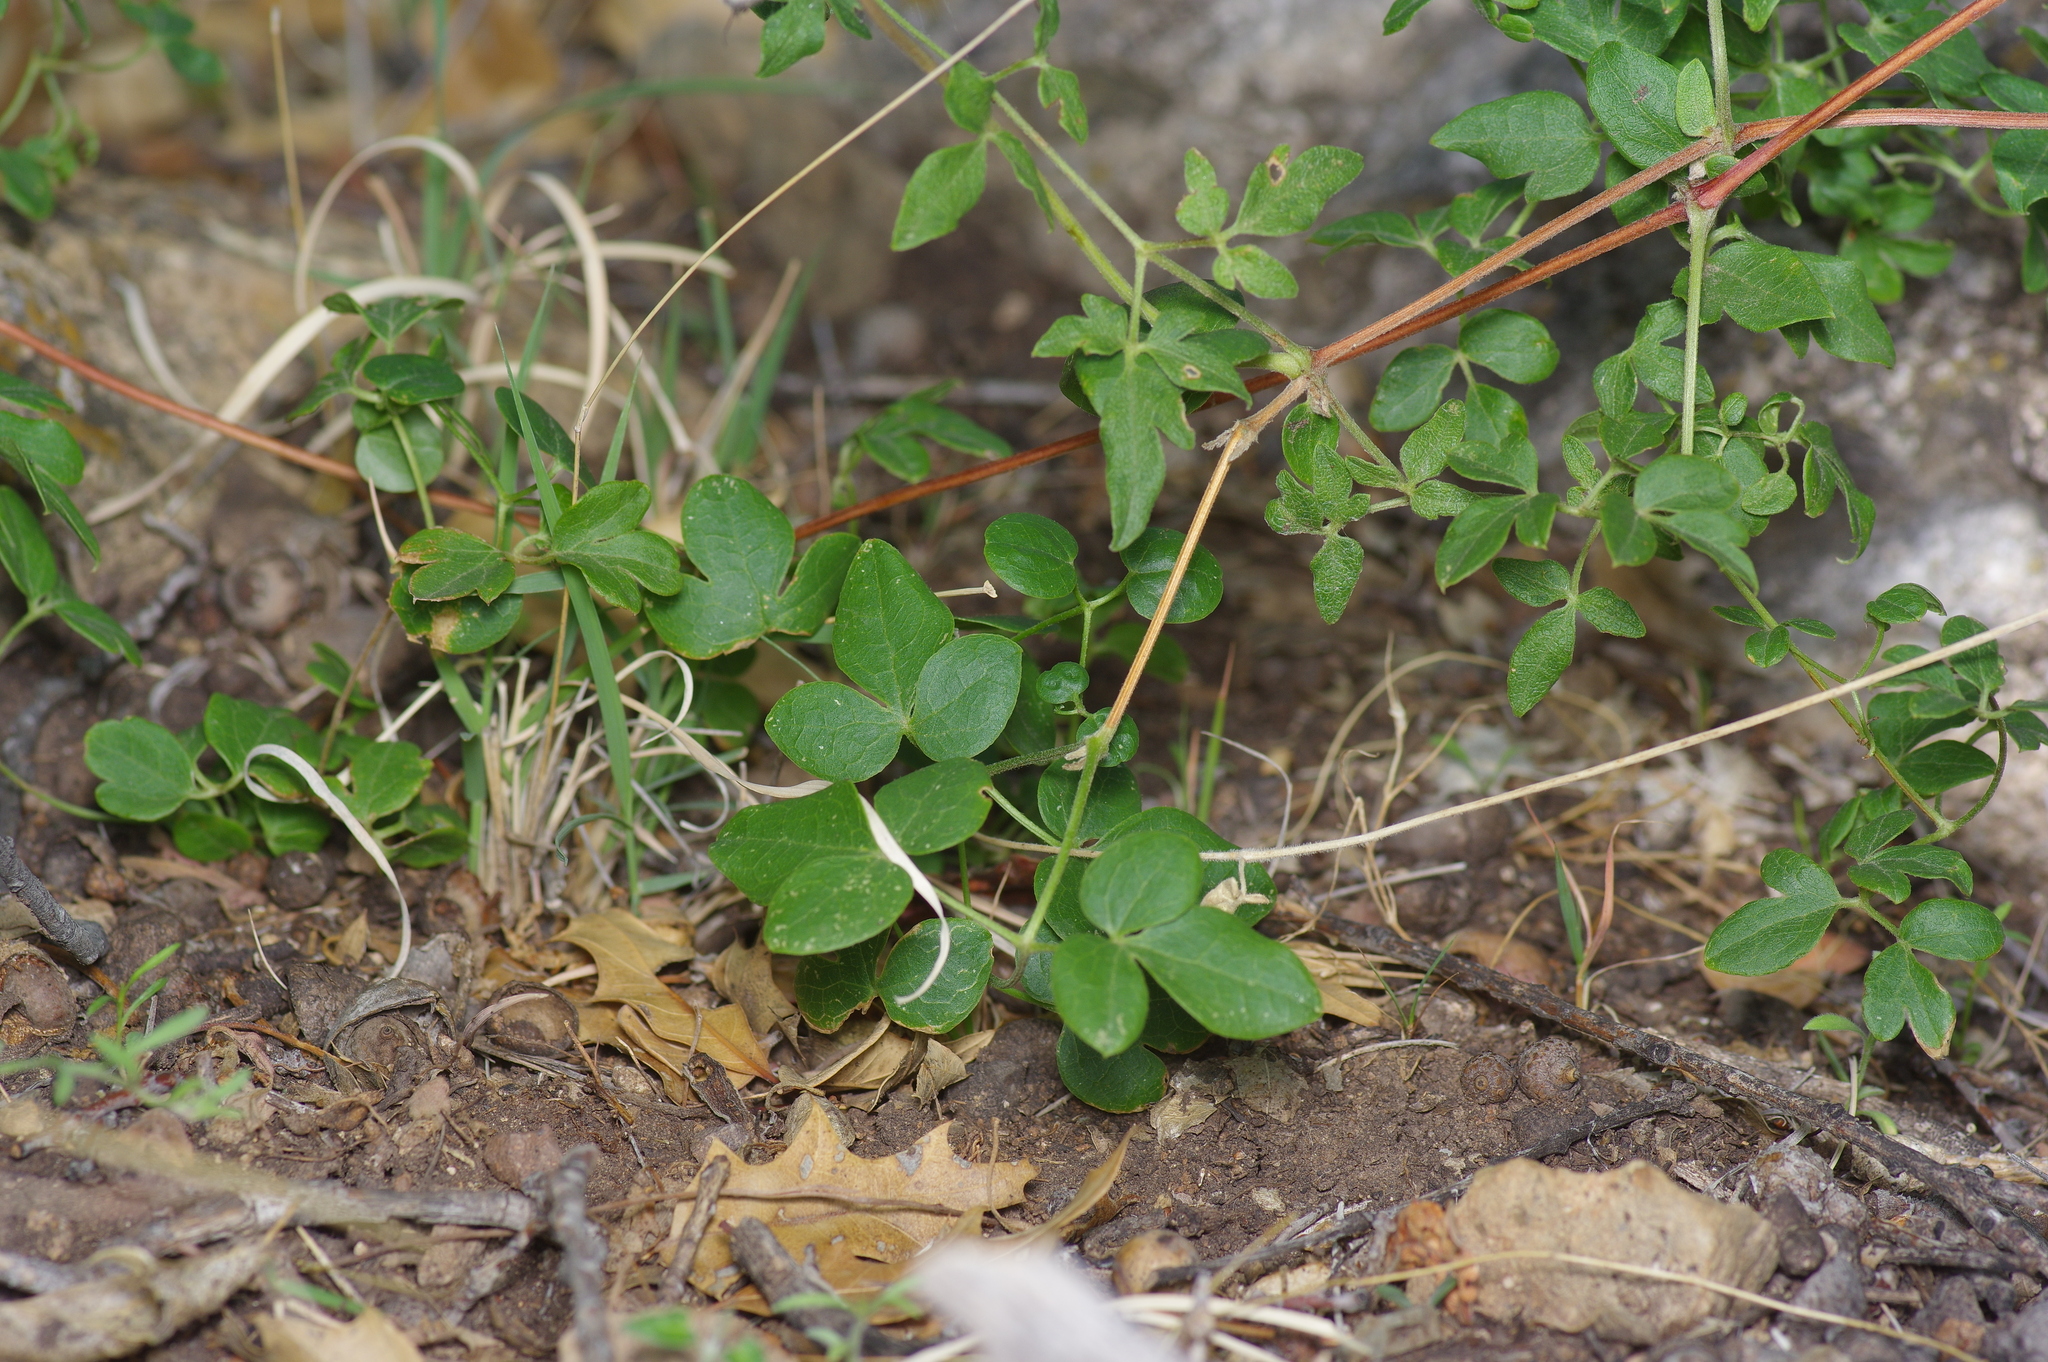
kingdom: Plantae
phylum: Tracheophyta
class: Magnoliopsida
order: Ranunculales
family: Ranunculaceae
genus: Clematis
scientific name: Clematis pitcheri
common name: Bellflower clematis
